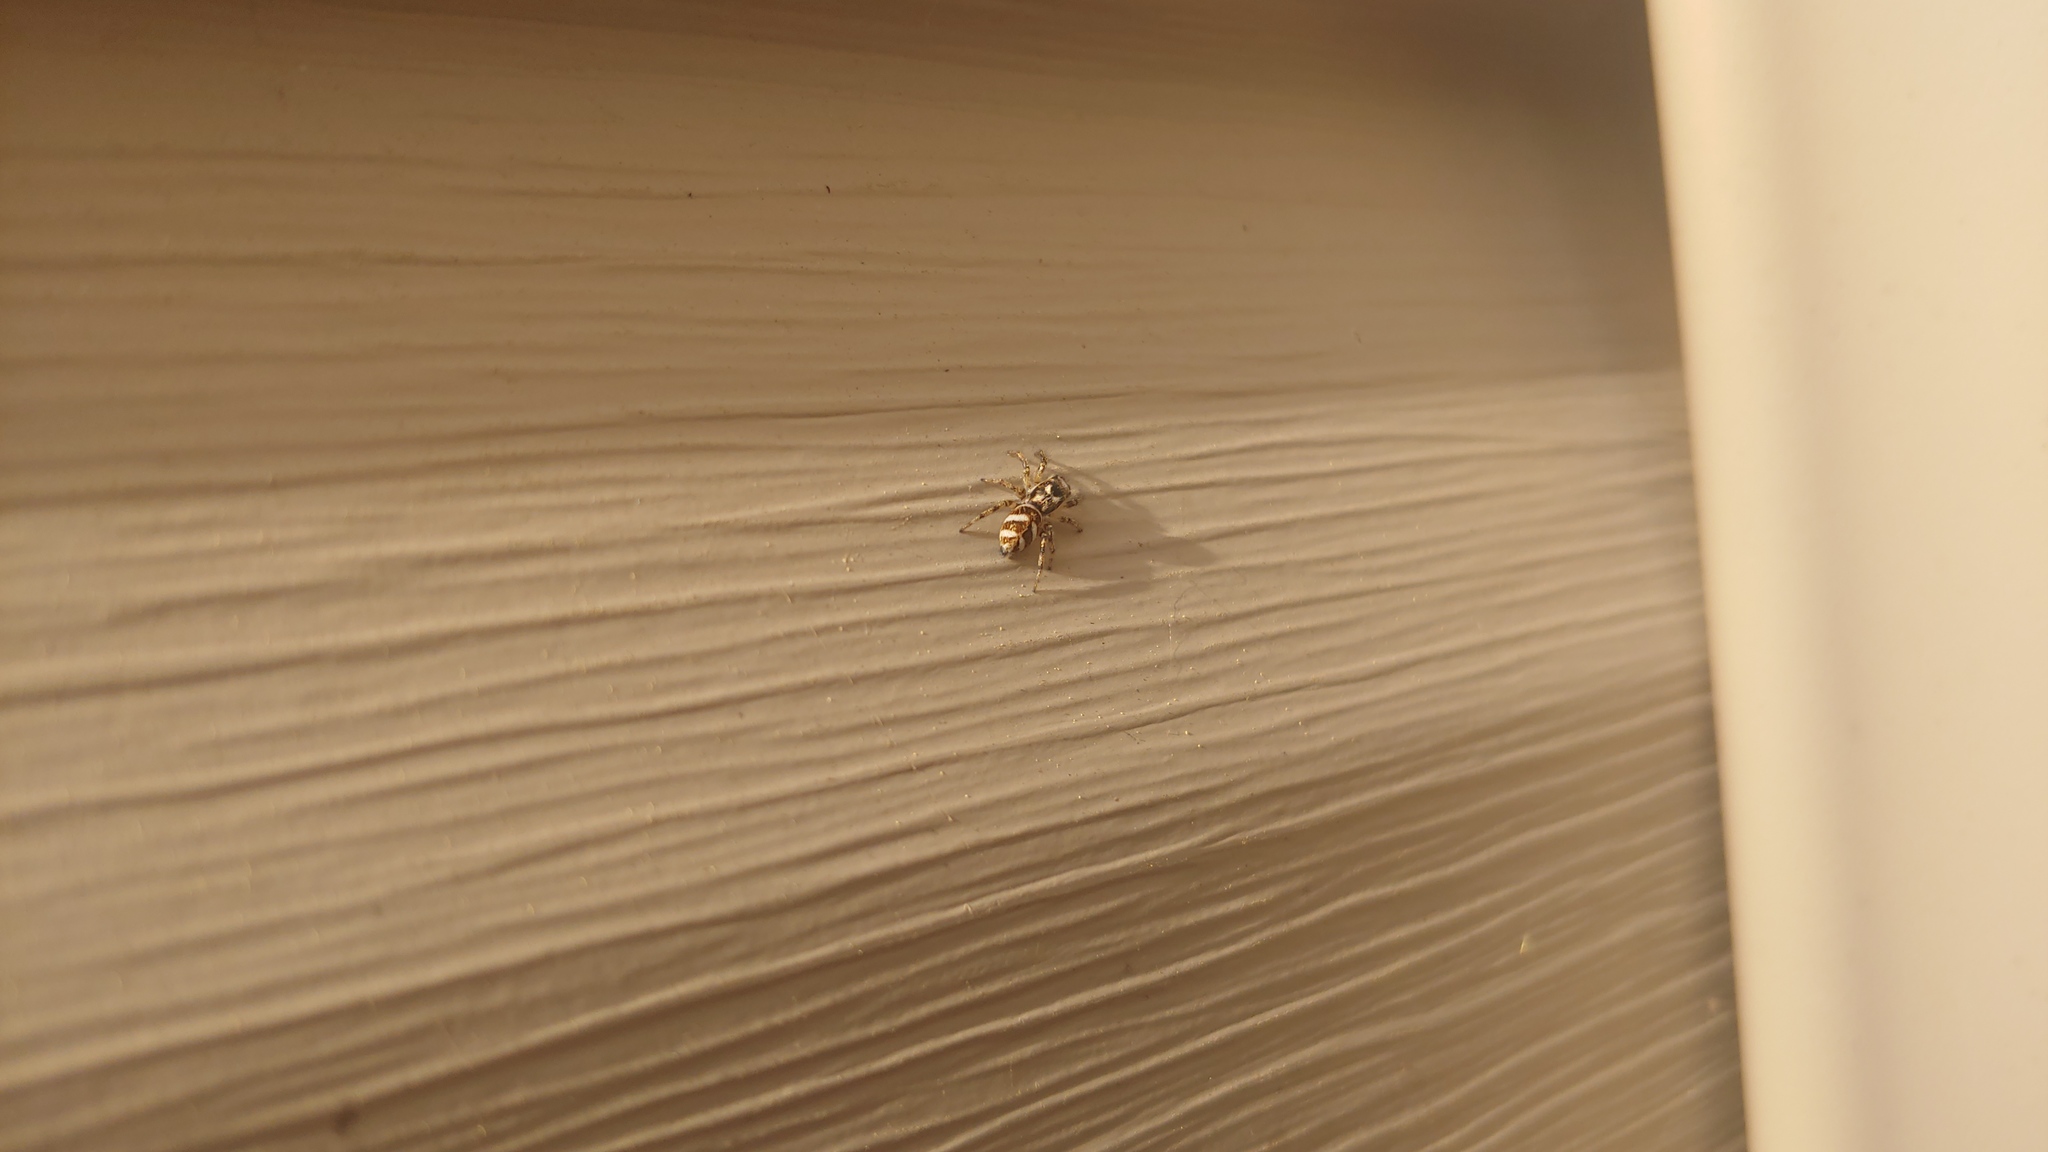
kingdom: Animalia
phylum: Arthropoda
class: Arachnida
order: Araneae
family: Salticidae
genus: Salticus
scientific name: Salticus scenicus
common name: Zebra jumper
